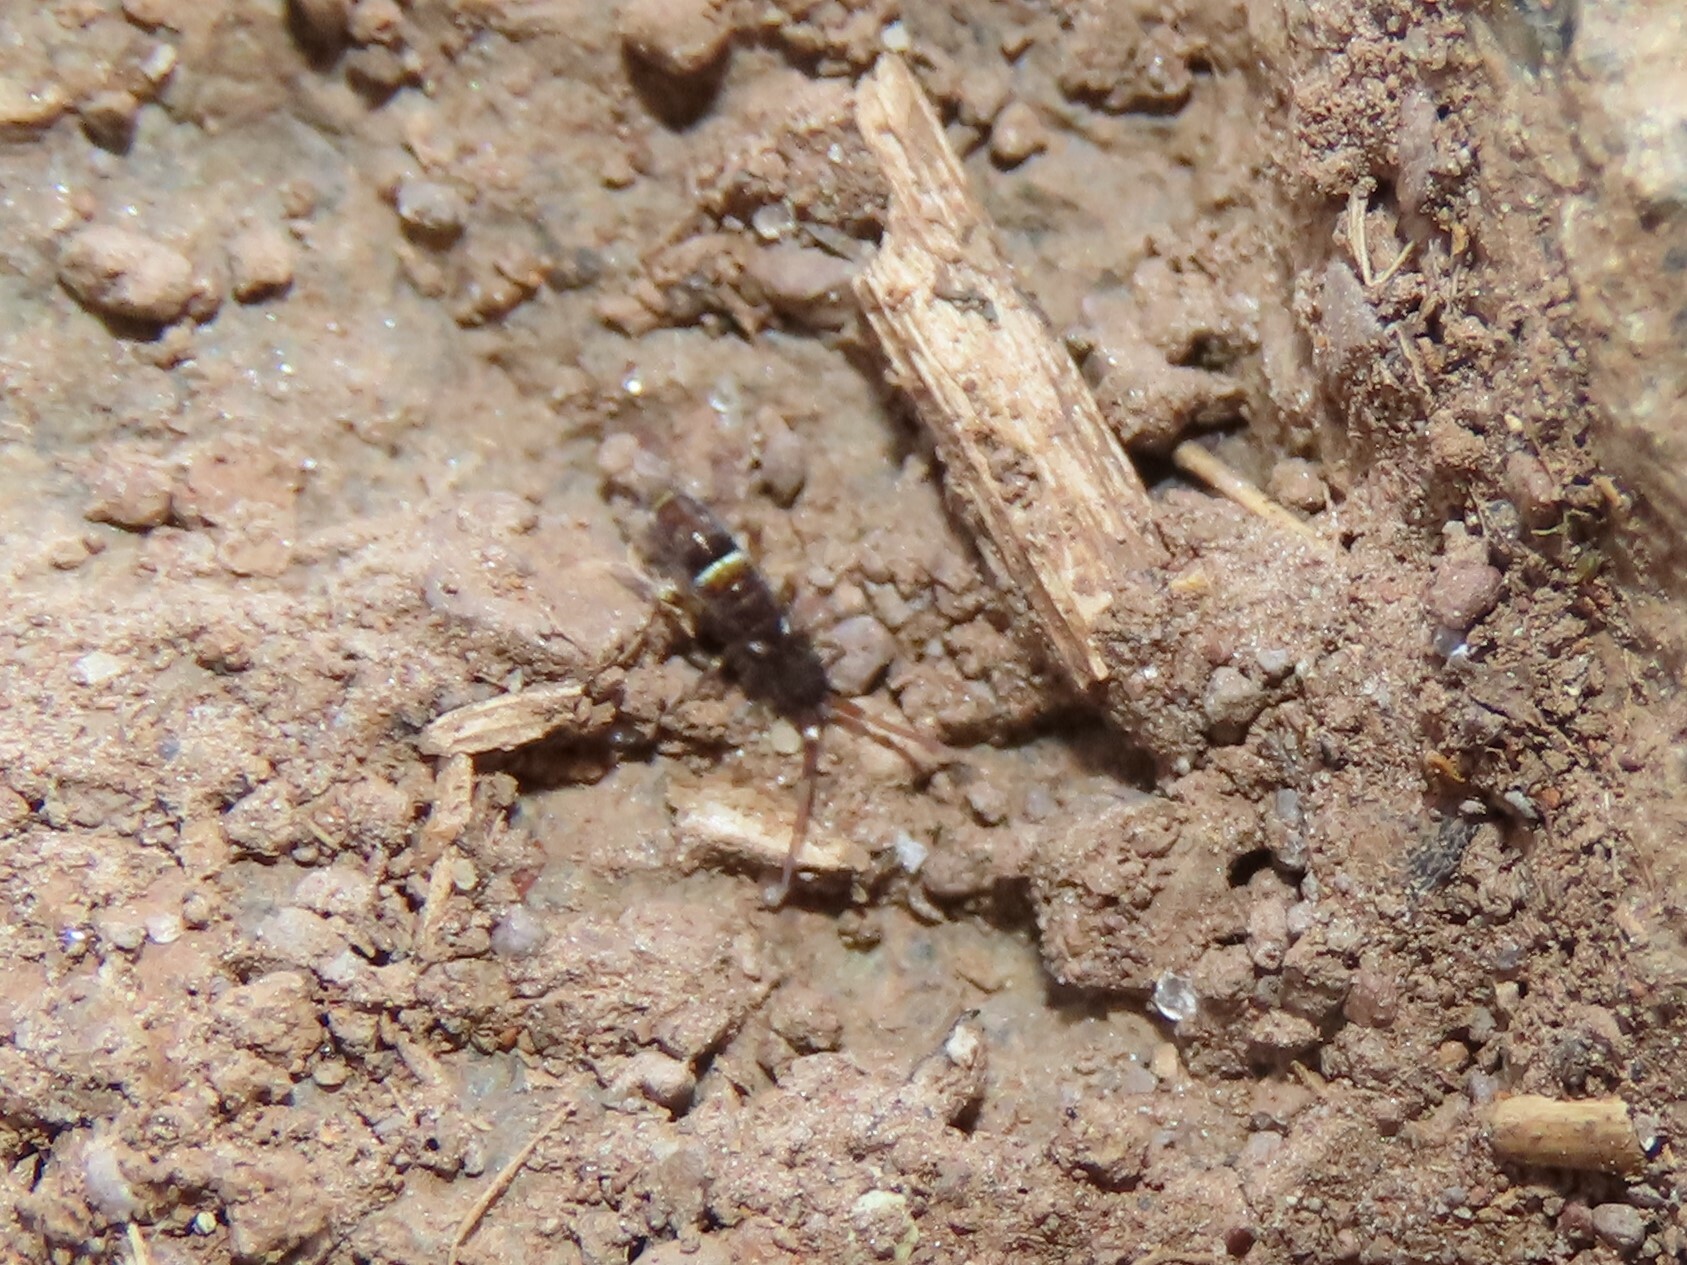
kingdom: Animalia
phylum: Arthropoda
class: Collembola
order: Entomobryomorpha
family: Orchesellidae
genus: Orchesella
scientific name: Orchesella cincta
